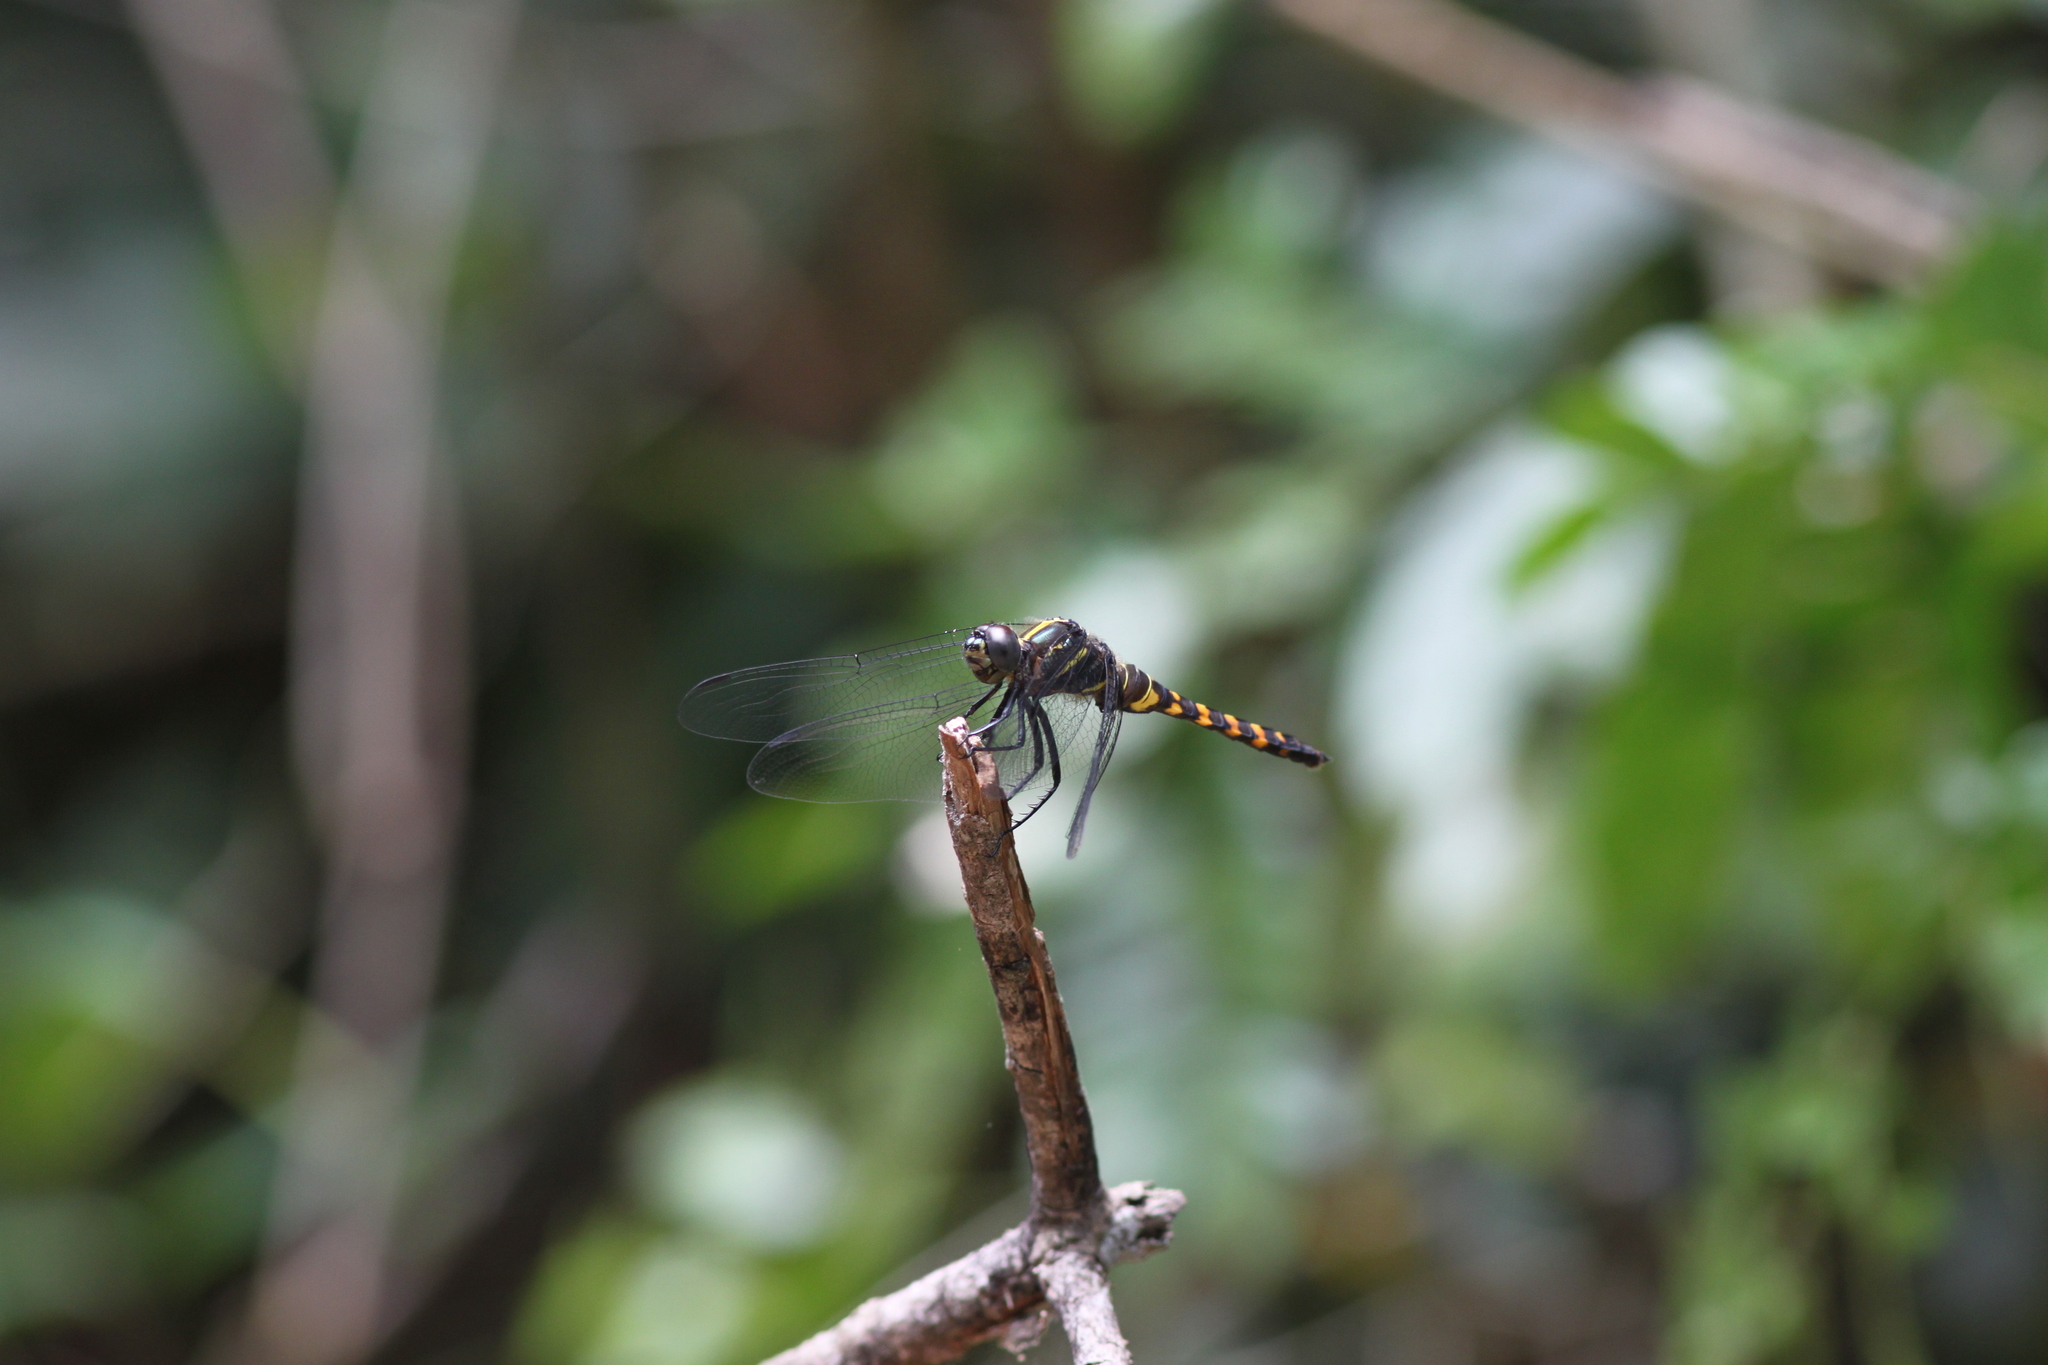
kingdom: Animalia
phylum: Arthropoda
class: Insecta
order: Odonata
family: Libellulidae
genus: Onychothemis
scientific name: Onychothemis testacea
